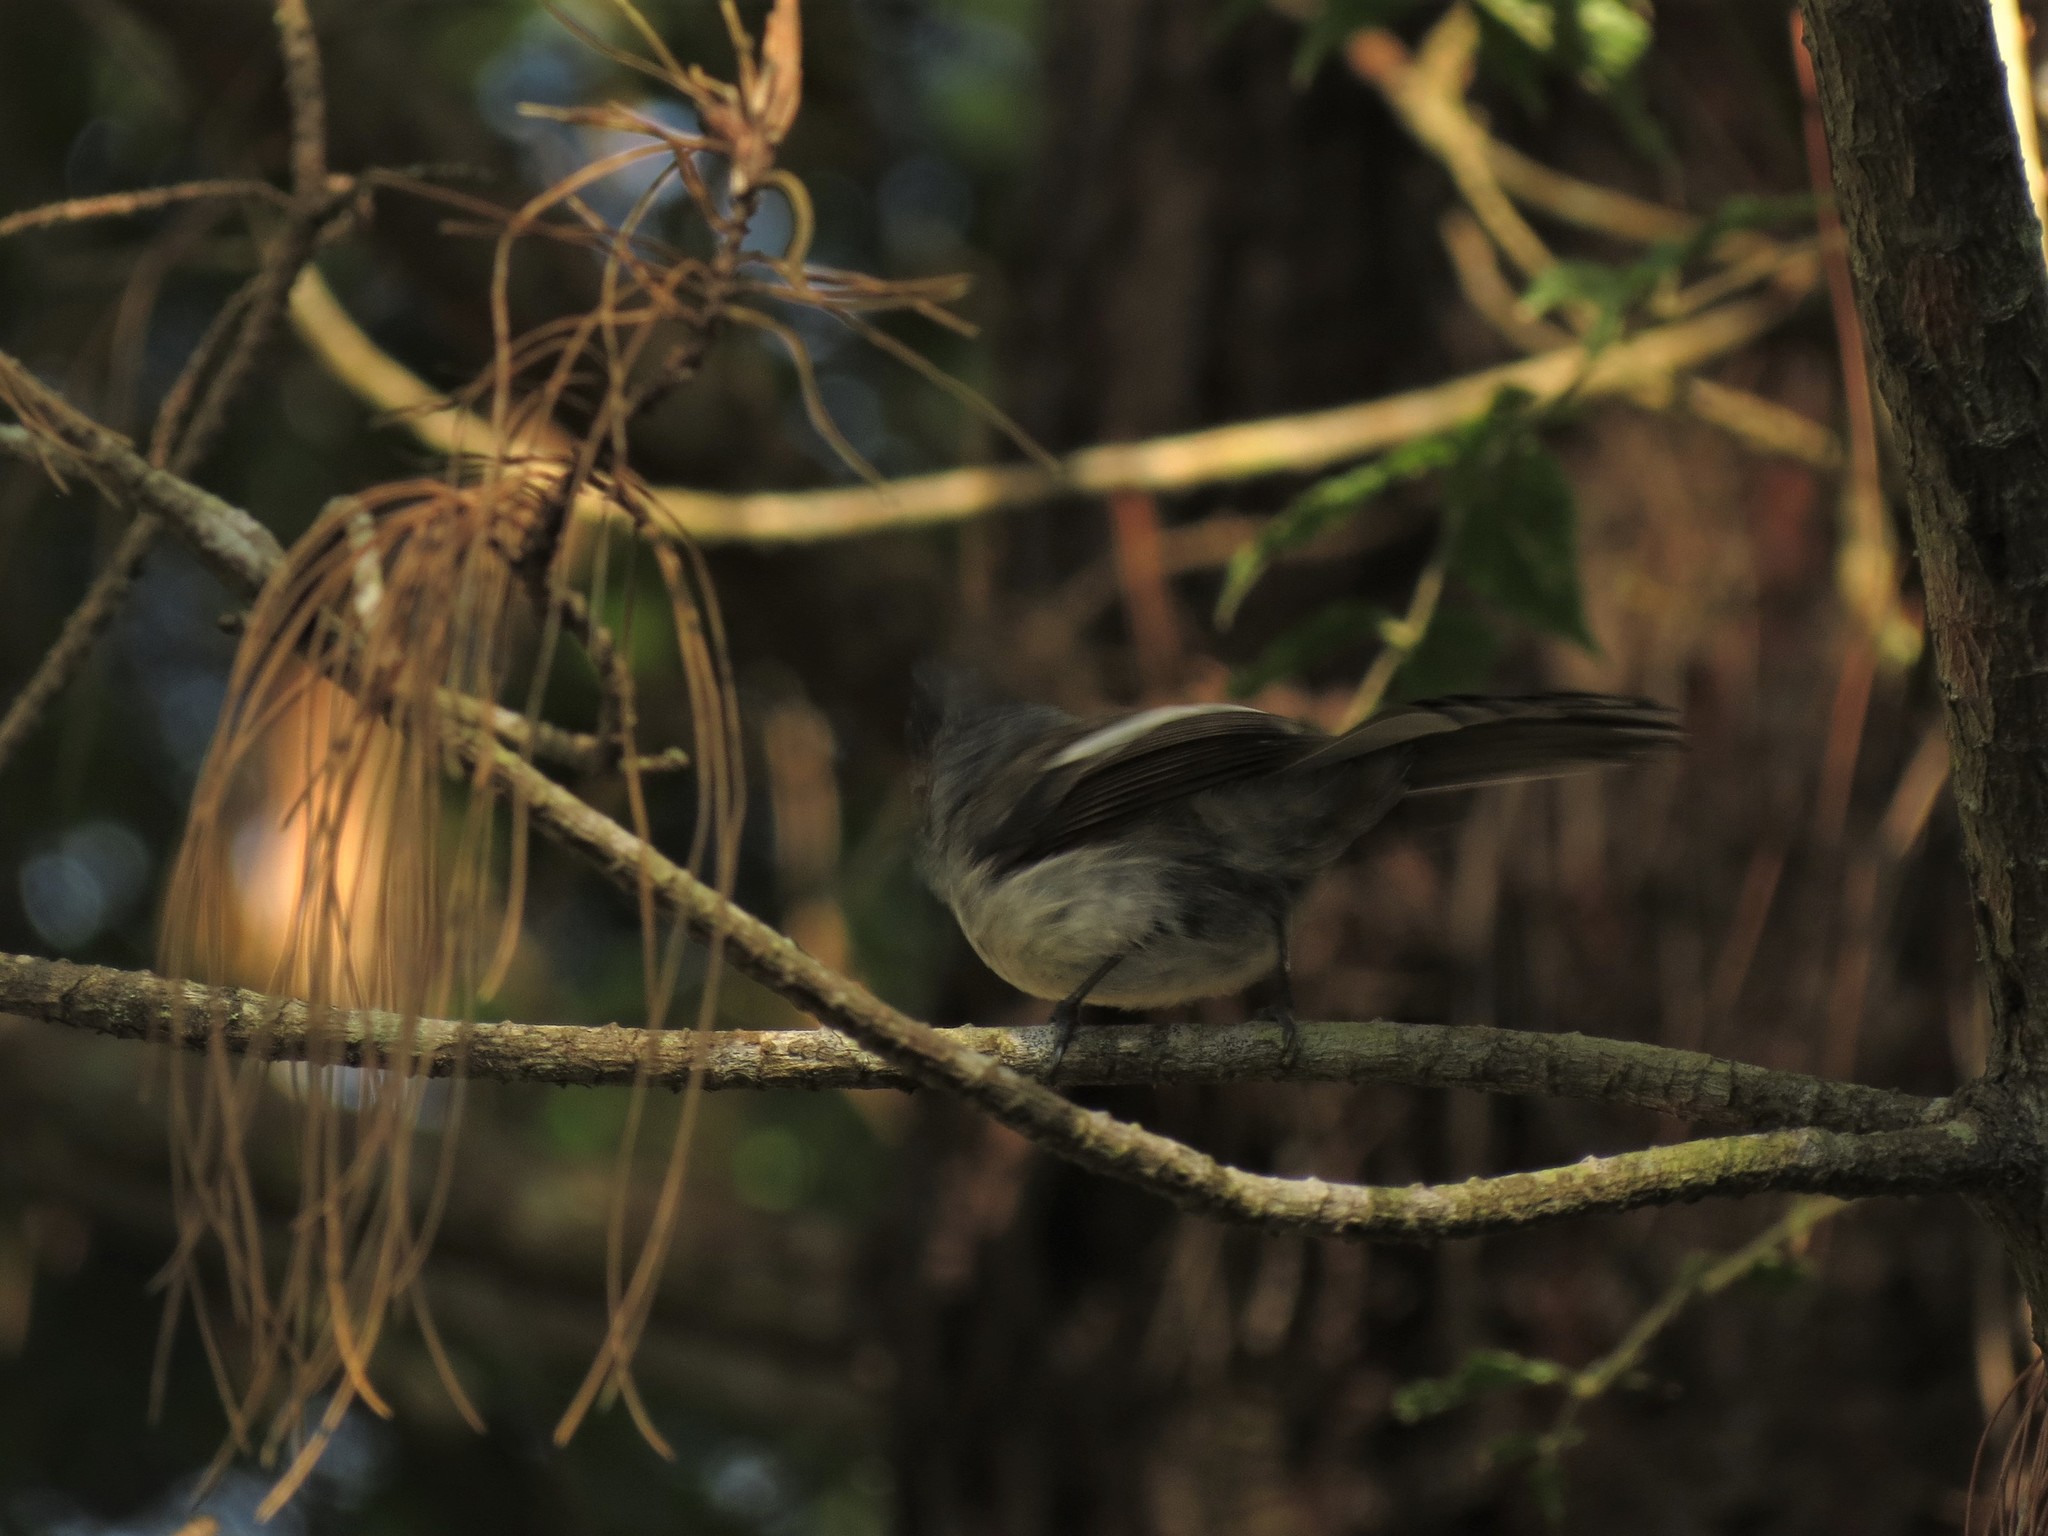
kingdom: Animalia
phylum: Chordata
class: Aves
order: Passeriformes
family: Monarchidae
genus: Trochocercus
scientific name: Trochocercus cyanomelas
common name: Blue-mantled crested flycatcher
